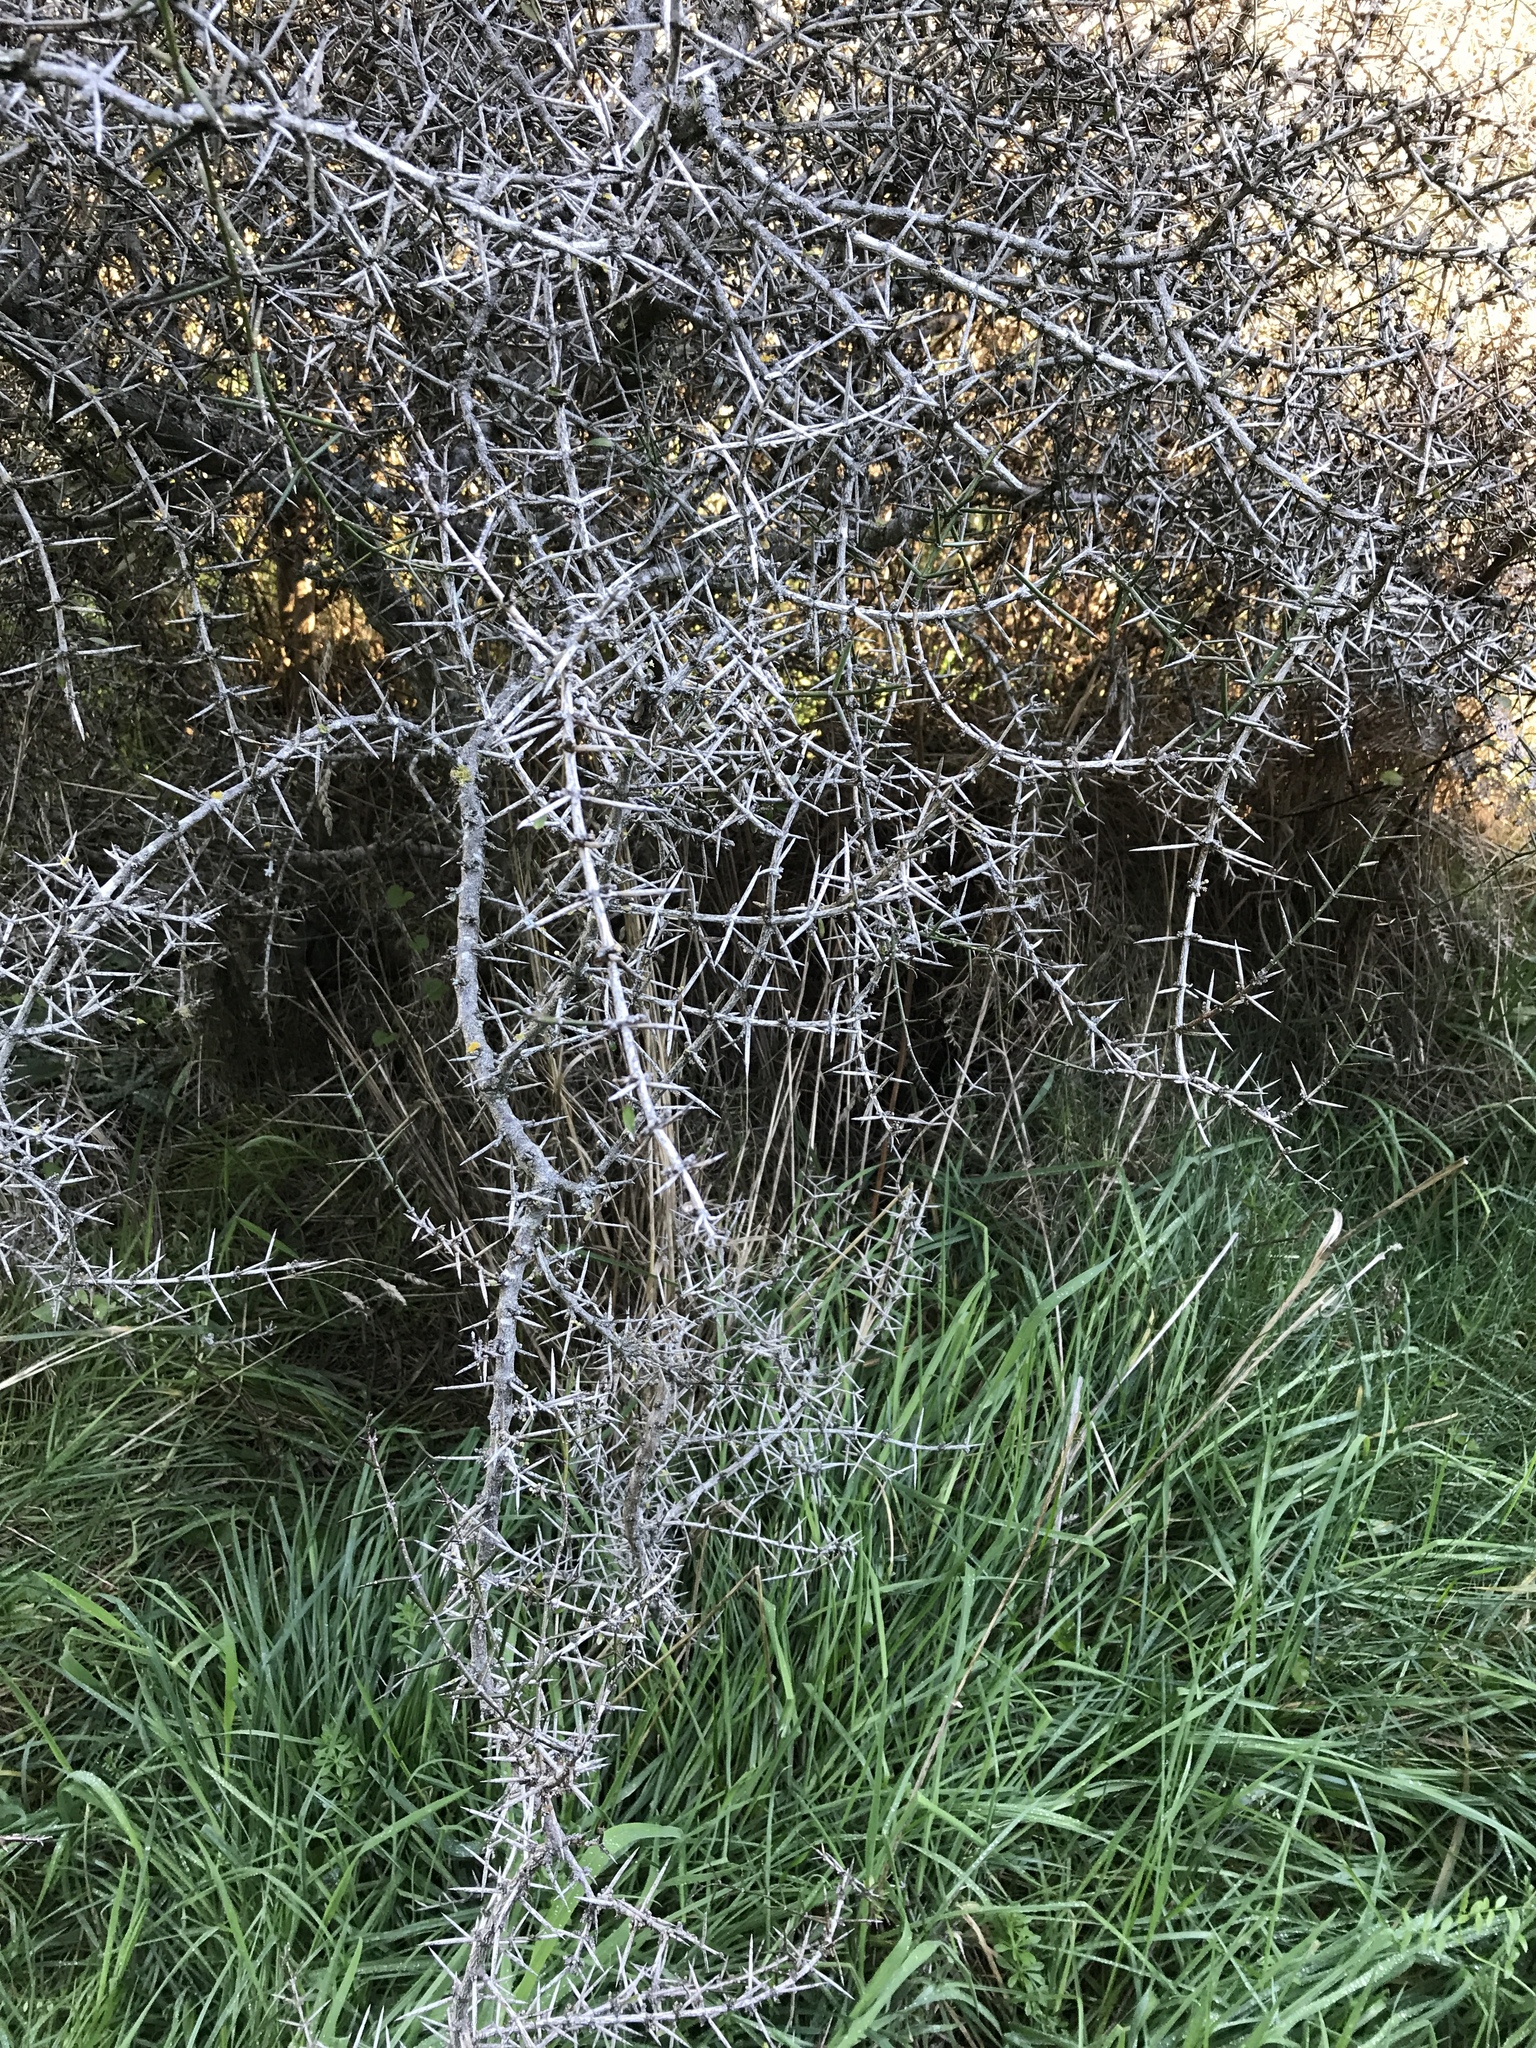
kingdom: Plantae
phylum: Tracheophyta
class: Magnoliopsida
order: Rosales
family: Rhamnaceae
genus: Discaria
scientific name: Discaria toumatou
